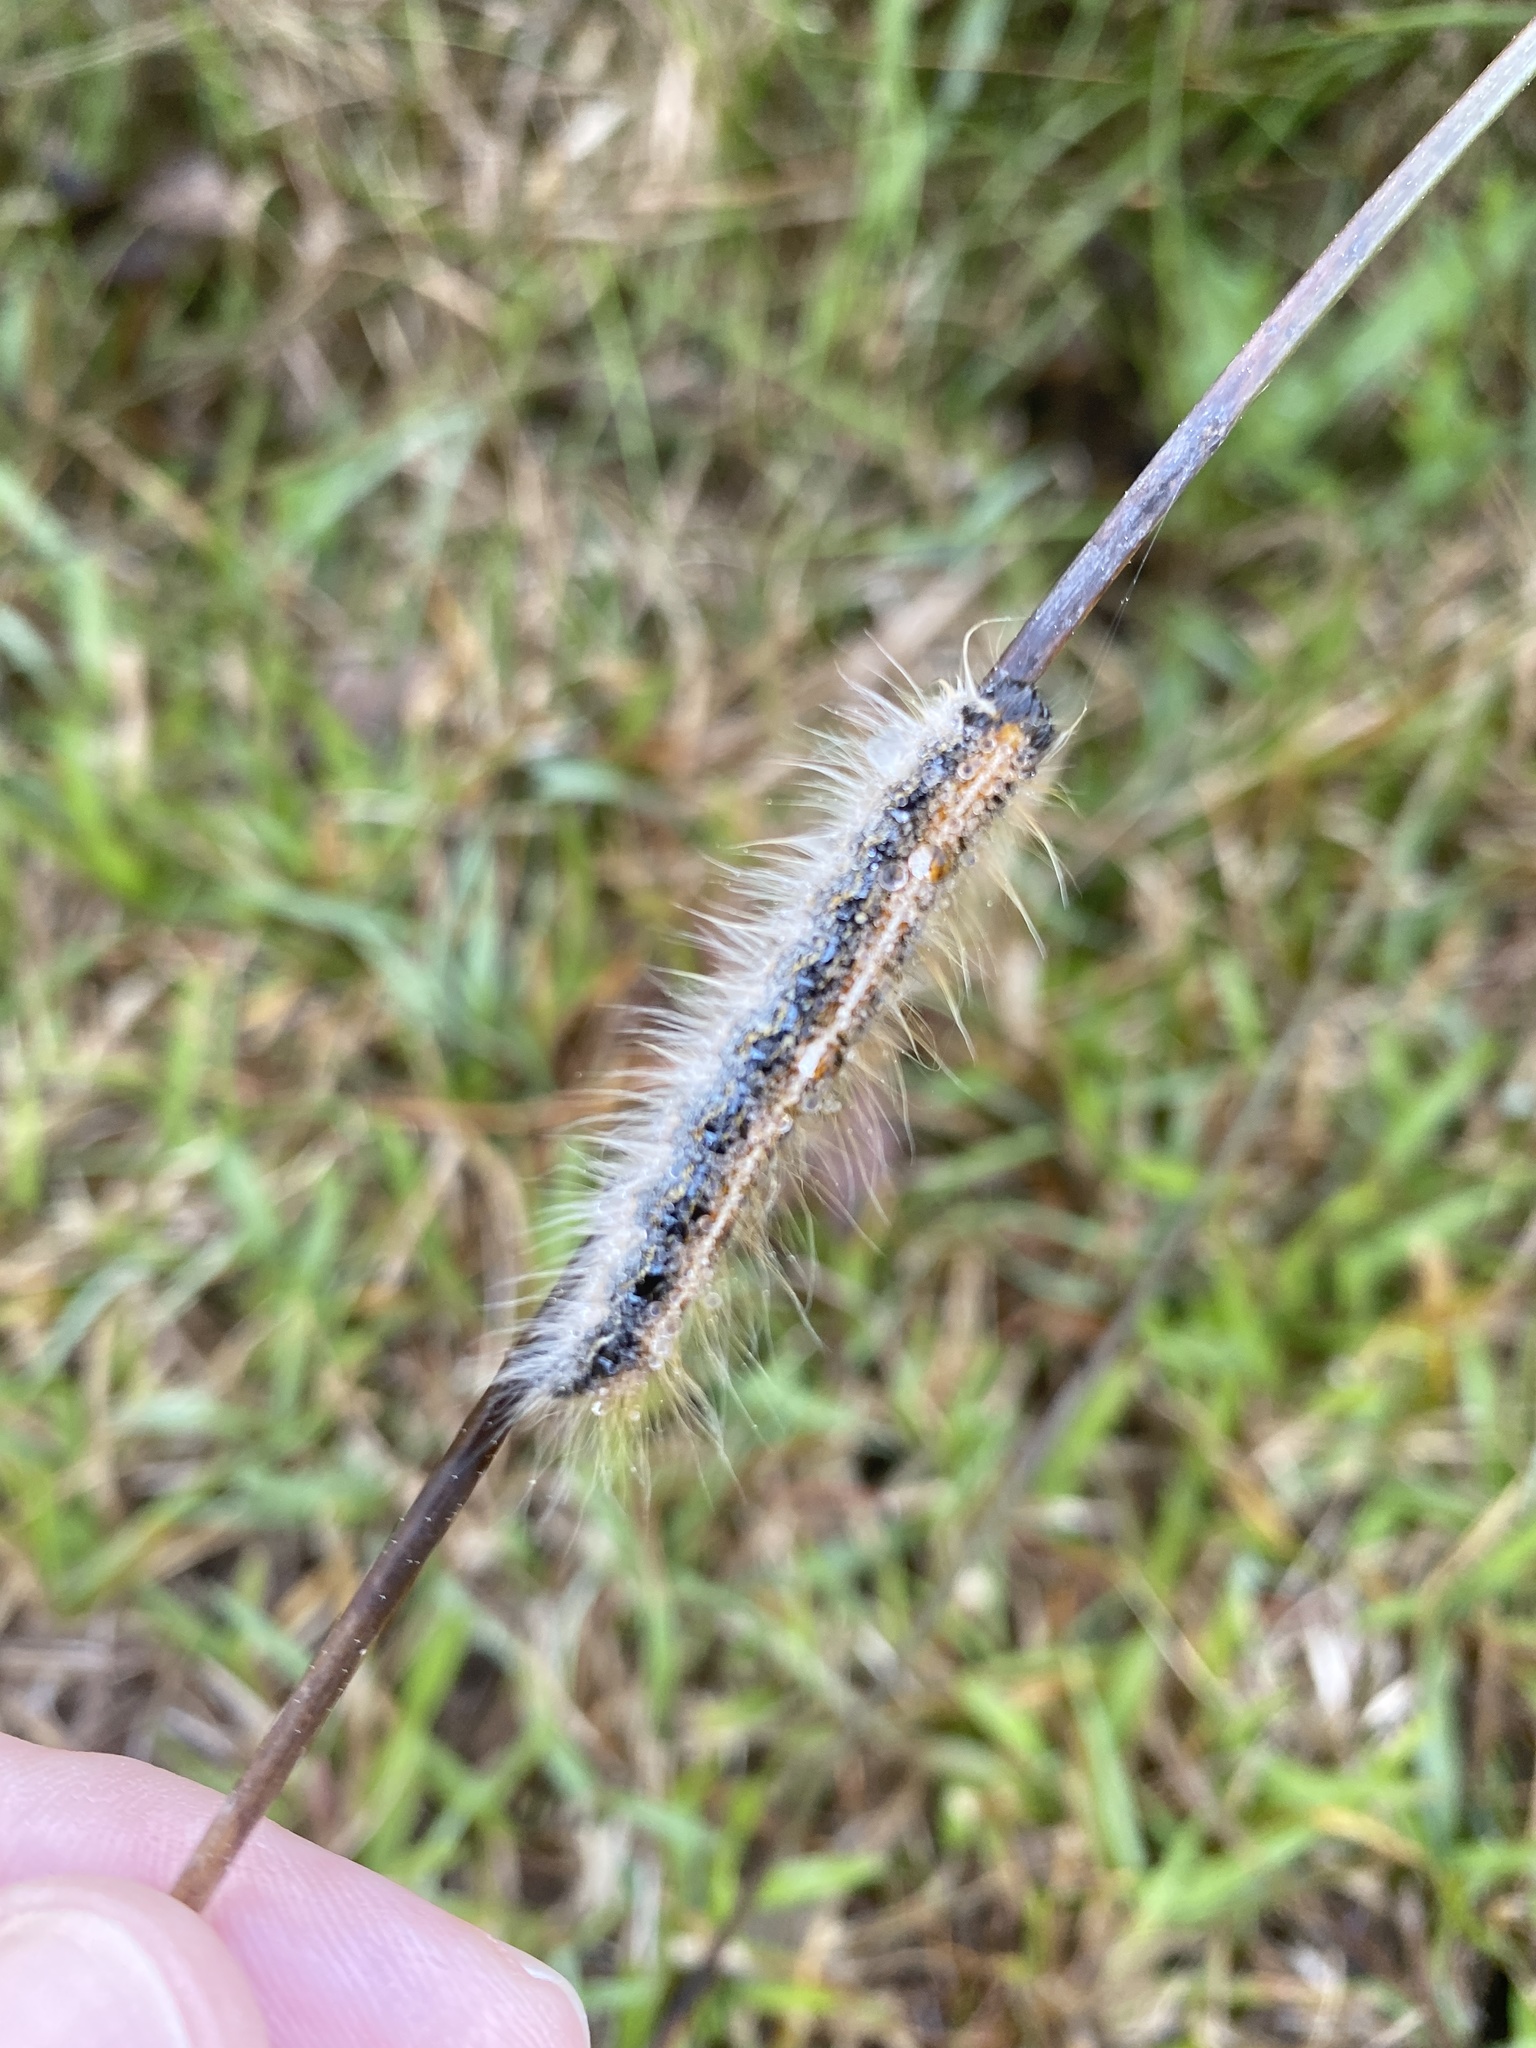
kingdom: Animalia
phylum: Arthropoda
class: Insecta
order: Lepidoptera
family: Lasiocampidae
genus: Malacosoma
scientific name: Malacosoma americana
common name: Eastern tent caterpillar moth
